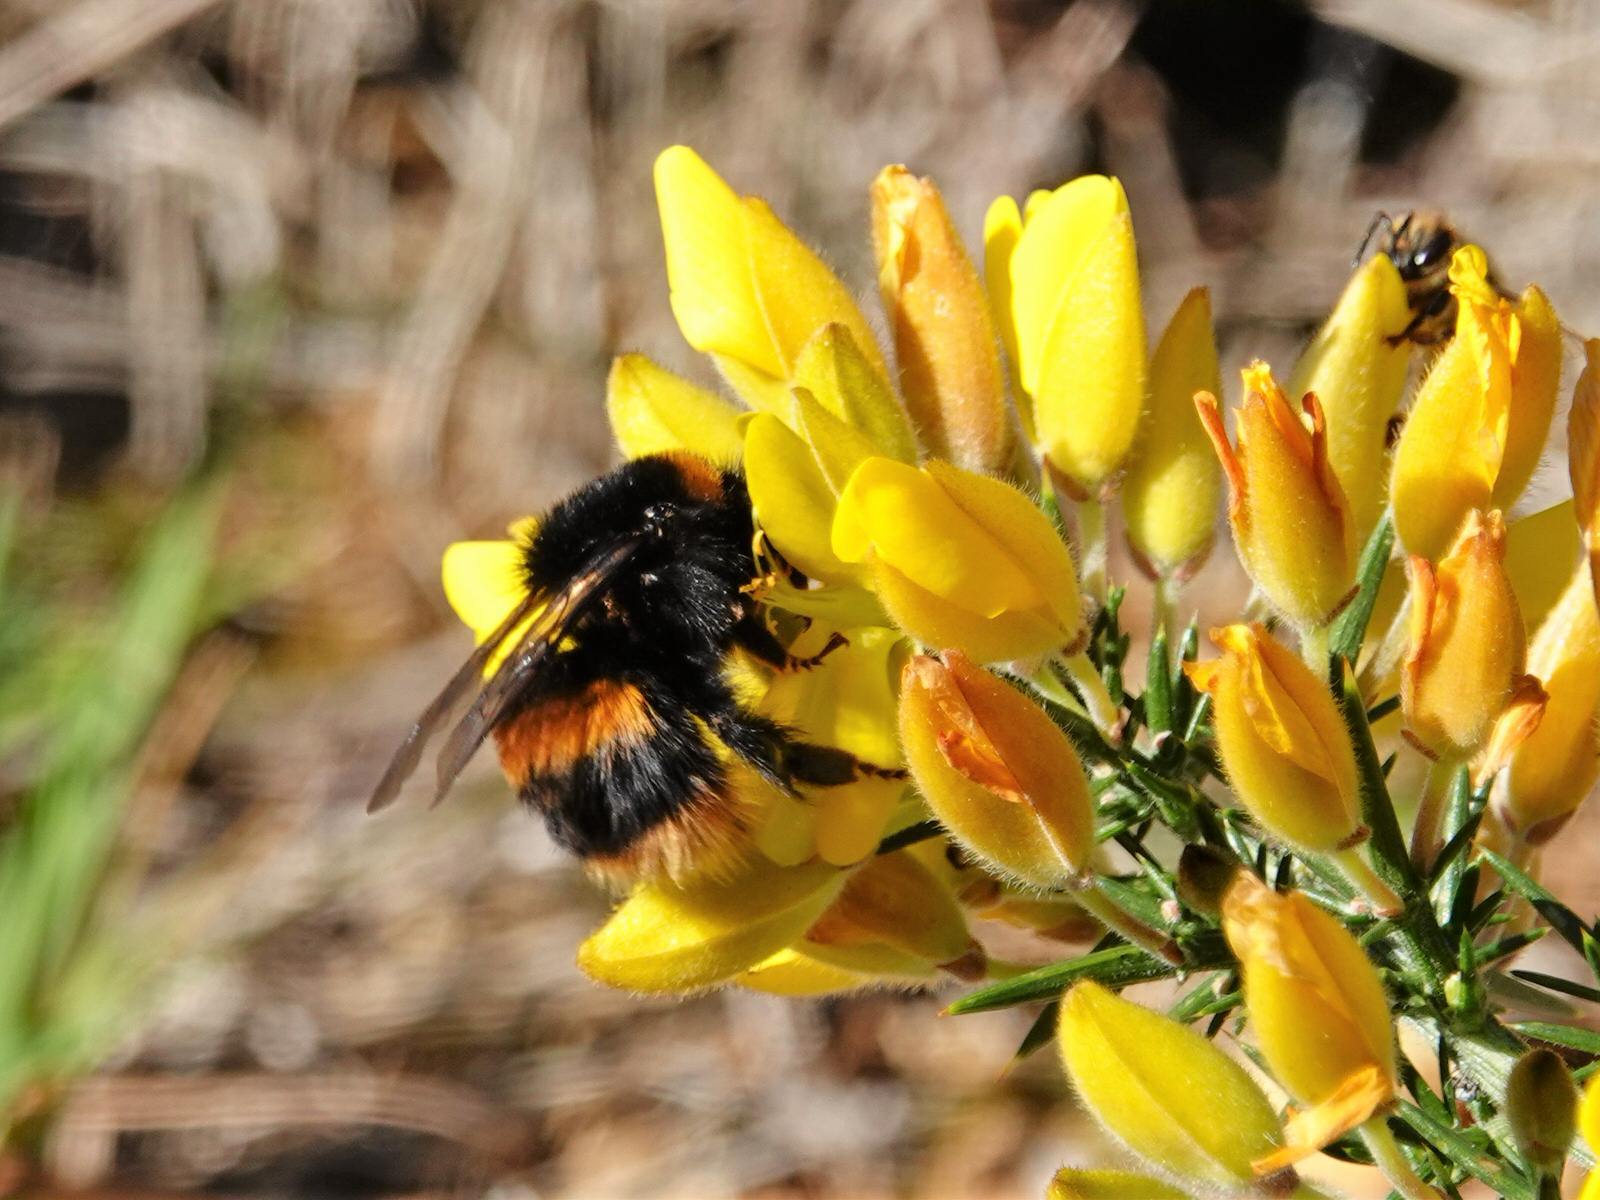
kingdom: Animalia
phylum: Arthropoda
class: Insecta
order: Hymenoptera
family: Apidae
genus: Bombus
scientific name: Bombus terrestris
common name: Buff-tailed bumblebee
